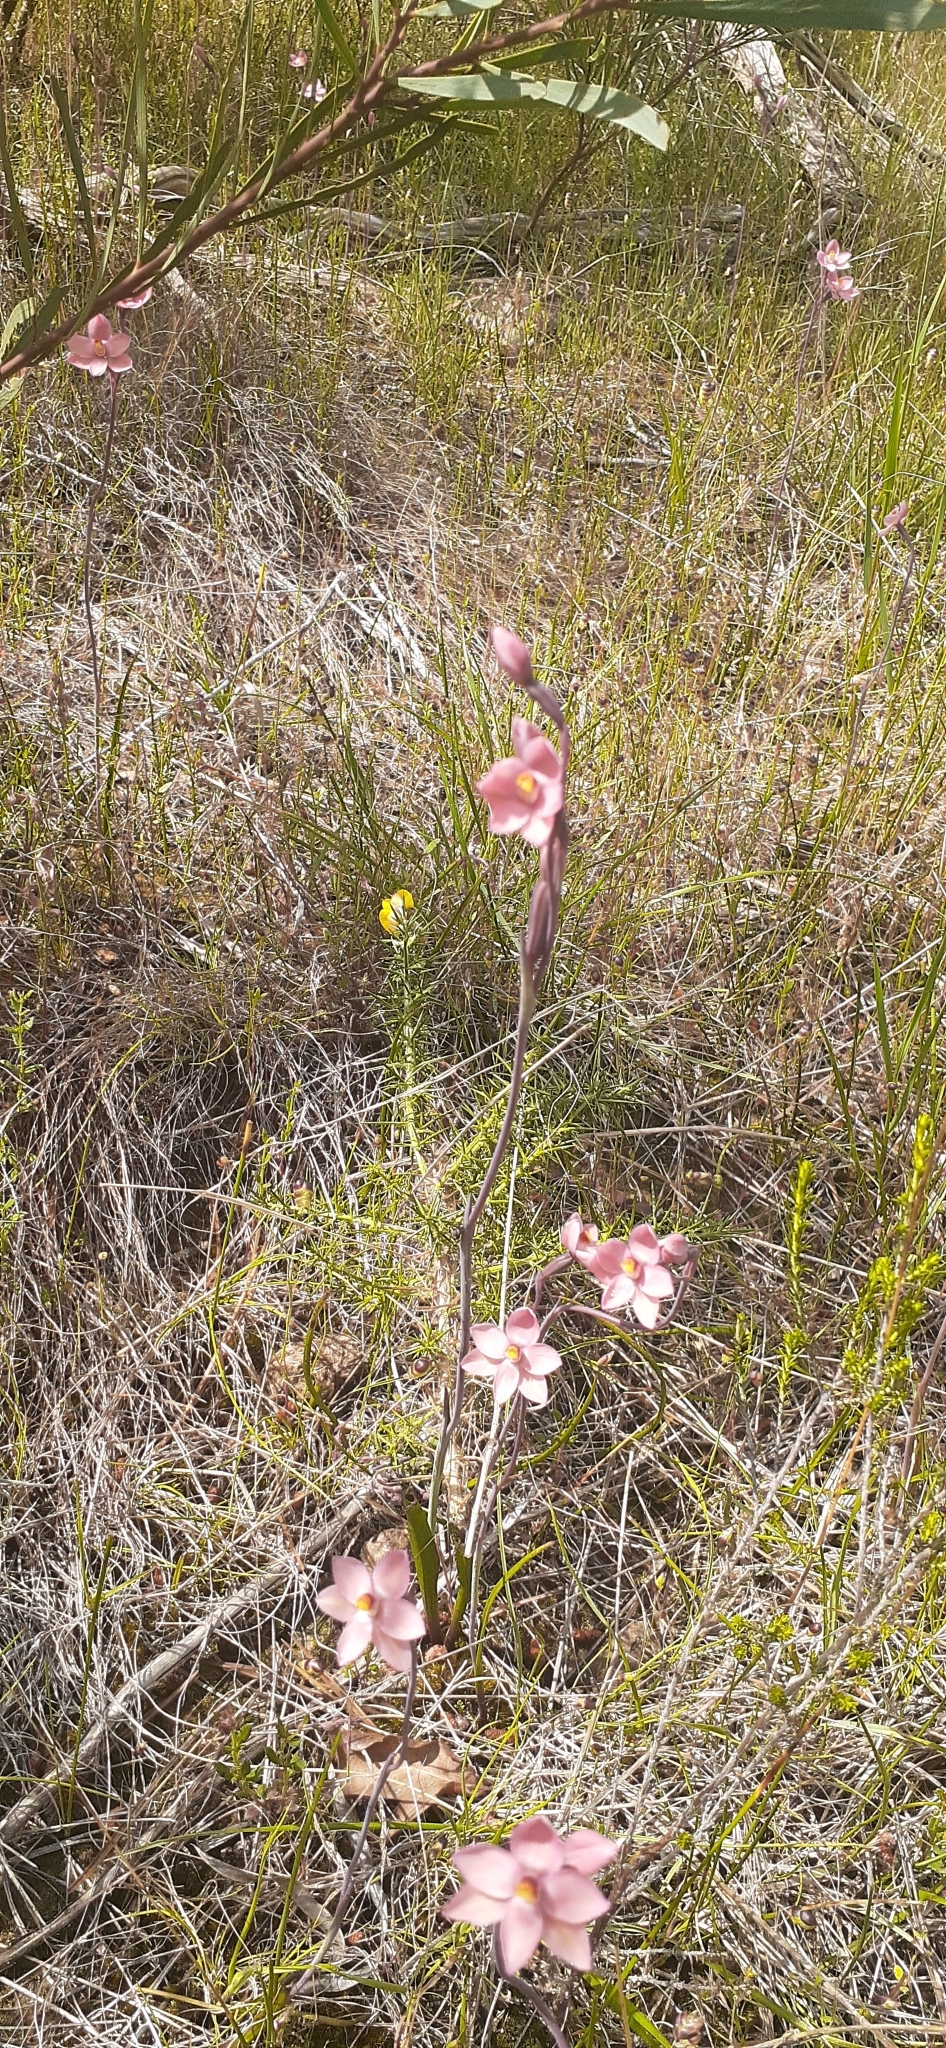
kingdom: Plantae
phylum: Tracheophyta
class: Liliopsida
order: Asparagales
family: Orchidaceae
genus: Thelymitra
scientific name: Thelymitra rubra
